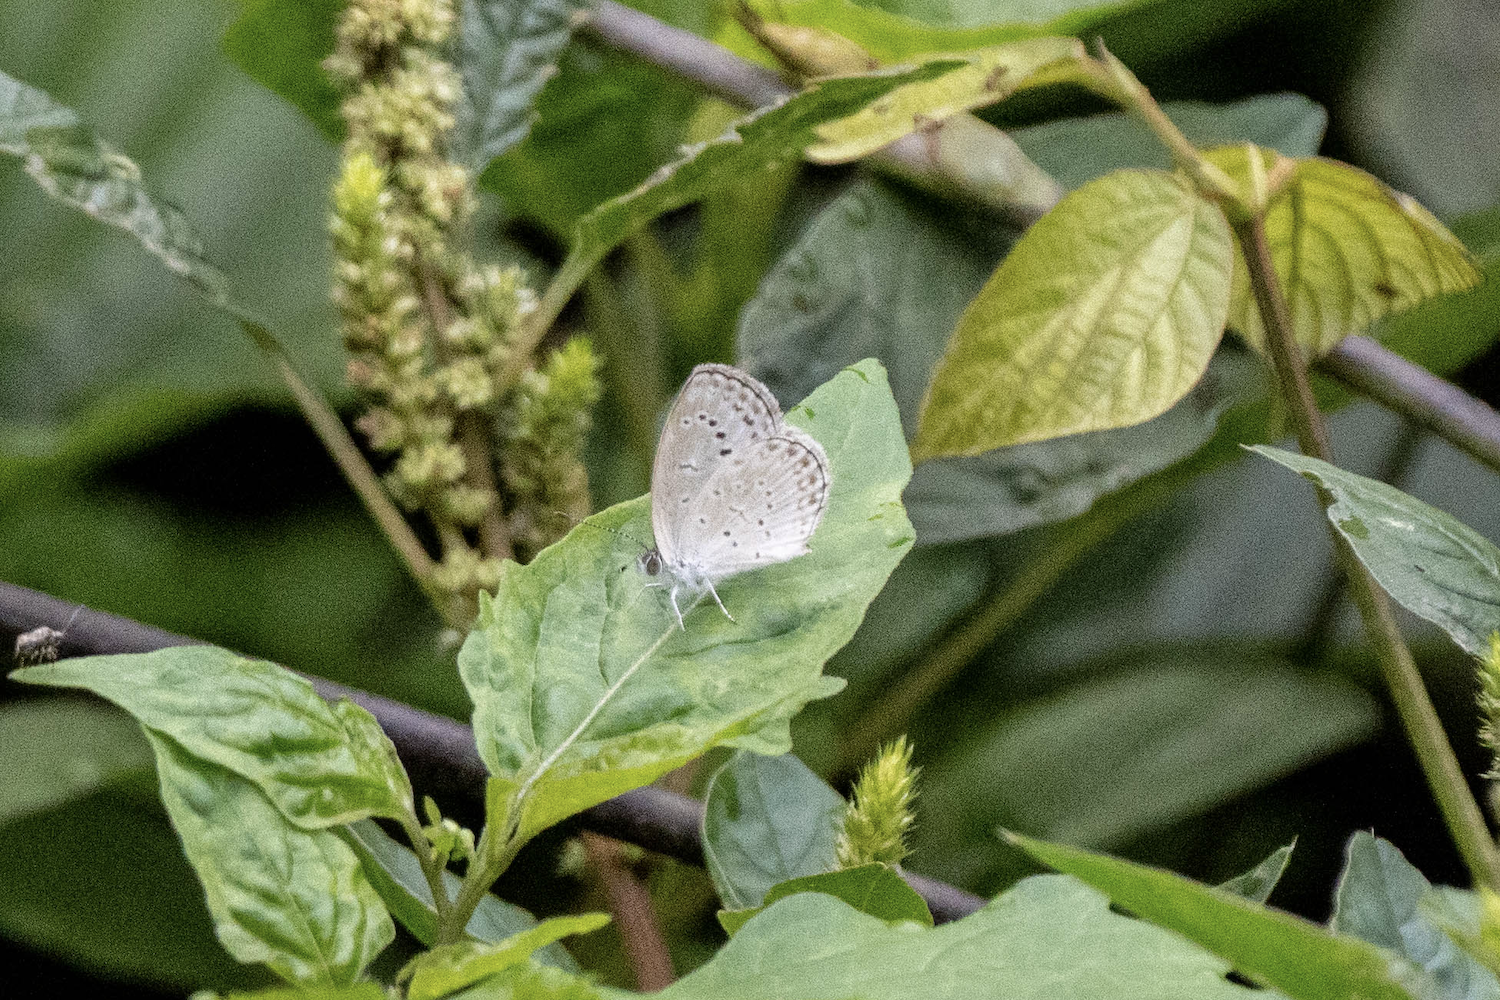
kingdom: Animalia
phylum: Arthropoda
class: Insecta
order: Lepidoptera
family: Lycaenidae
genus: Pseudozizeeria
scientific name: Pseudozizeeria maha
